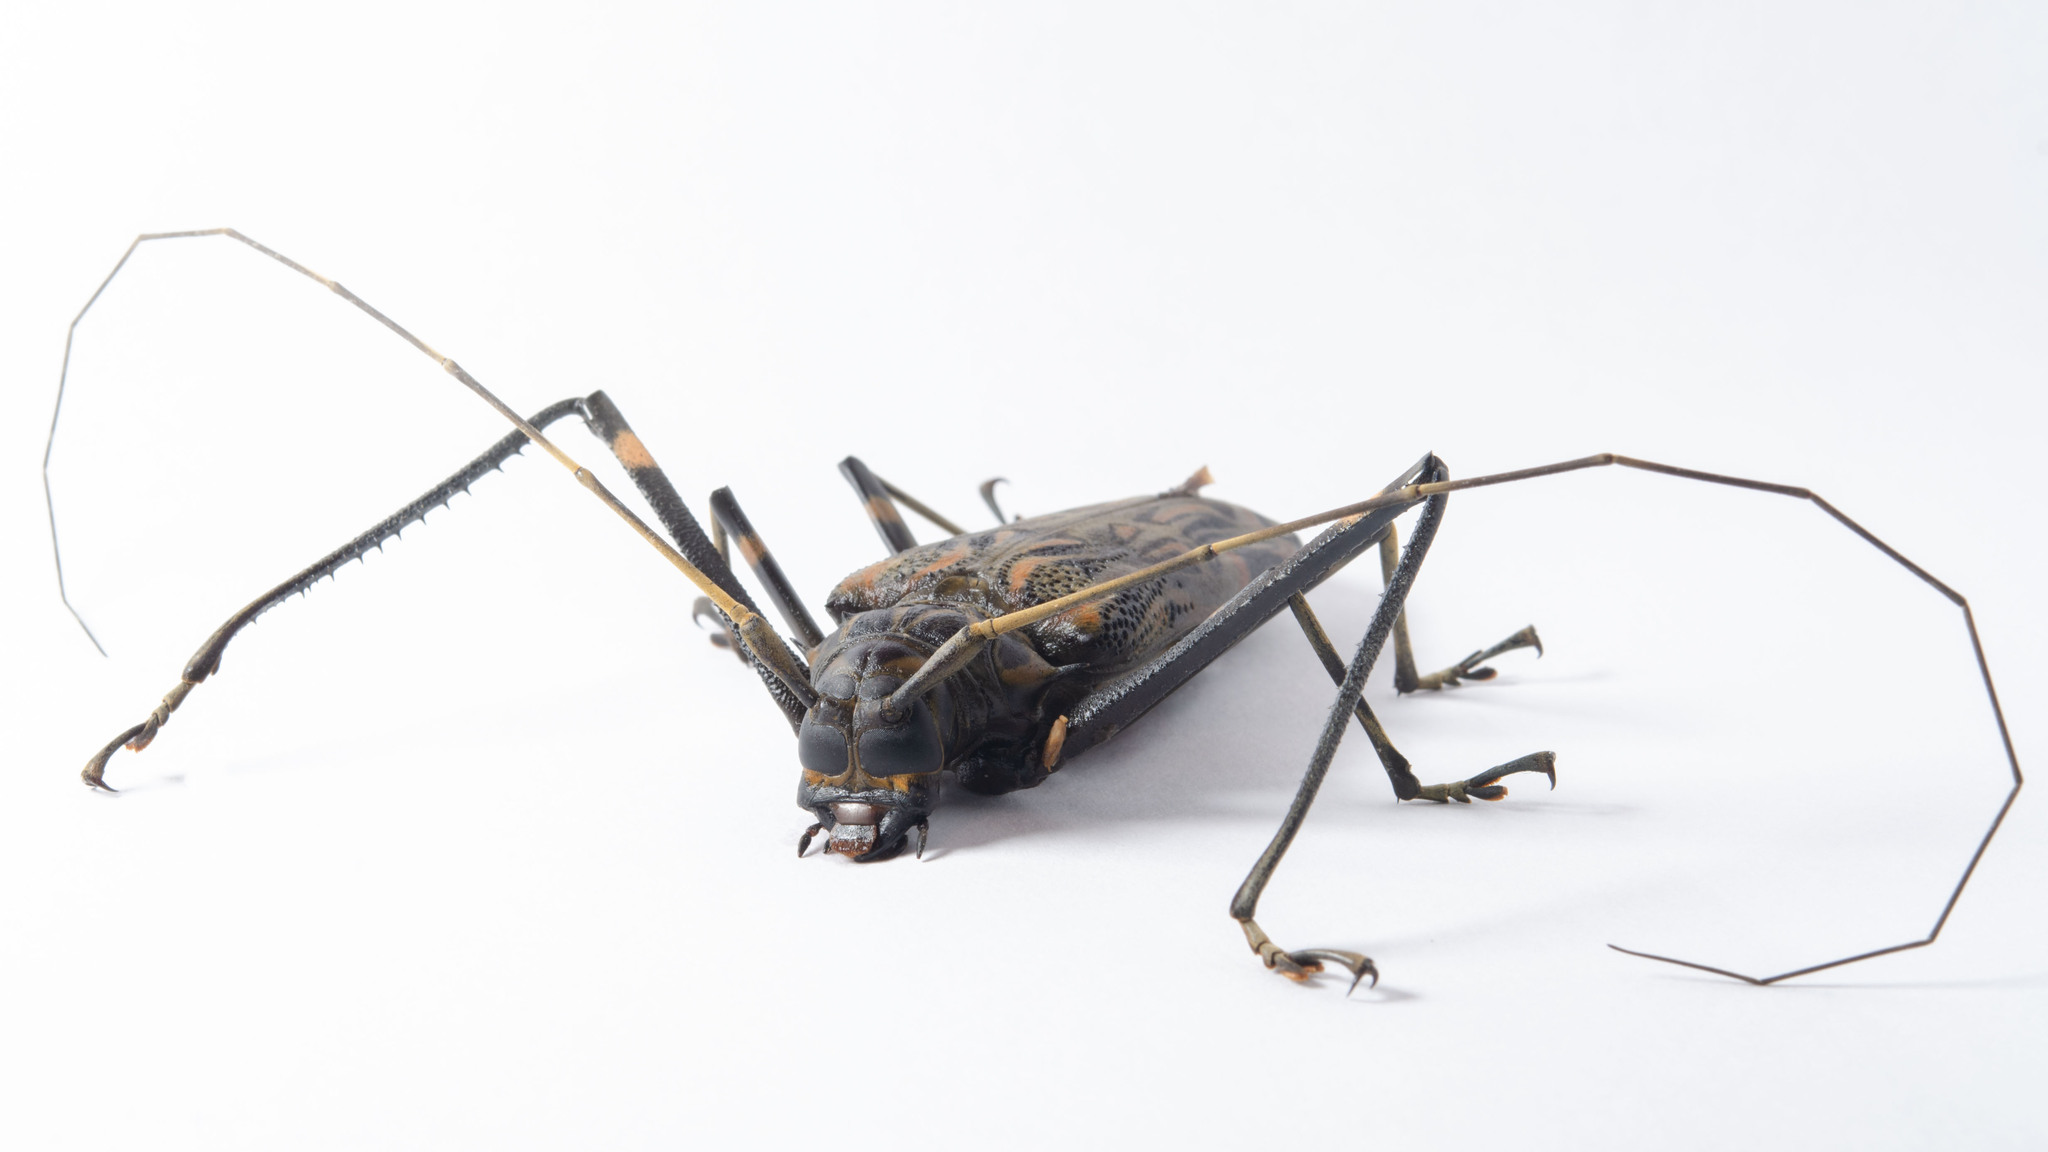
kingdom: Animalia
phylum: Arthropoda
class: Insecta
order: Coleoptera
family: Cerambycidae
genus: Acrocinus
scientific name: Acrocinus longimanus
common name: Arlequin
